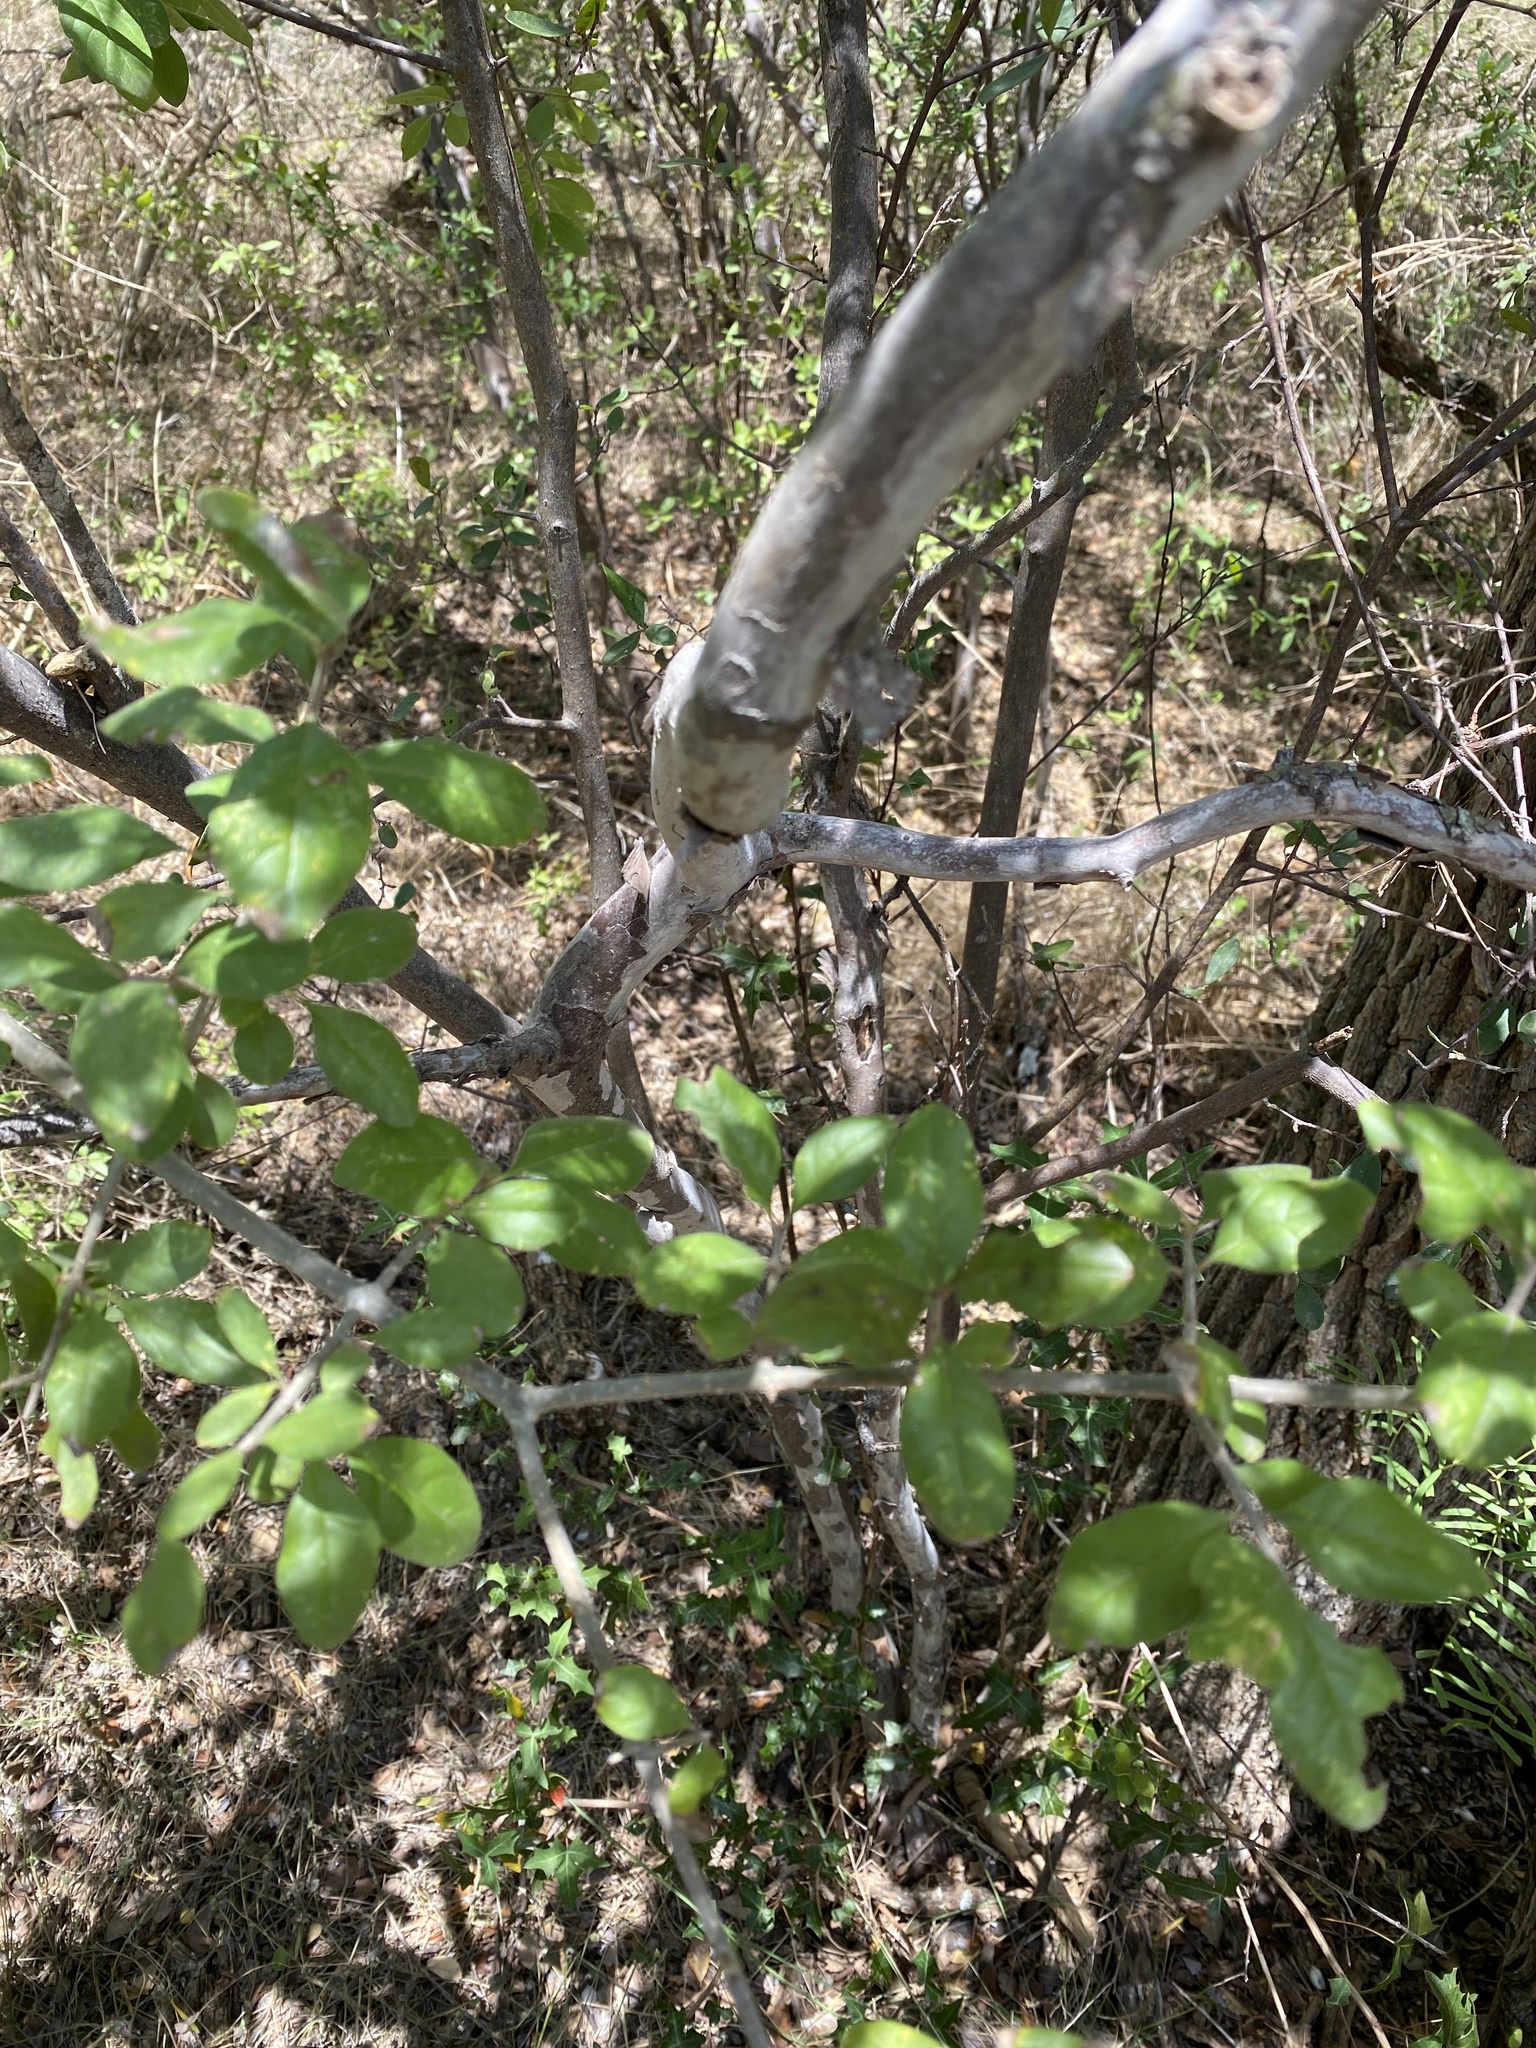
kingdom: Plantae
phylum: Tracheophyta
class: Magnoliopsida
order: Ericales
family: Ebenaceae
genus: Diospyros
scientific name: Diospyros texana
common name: Texas persimmon
